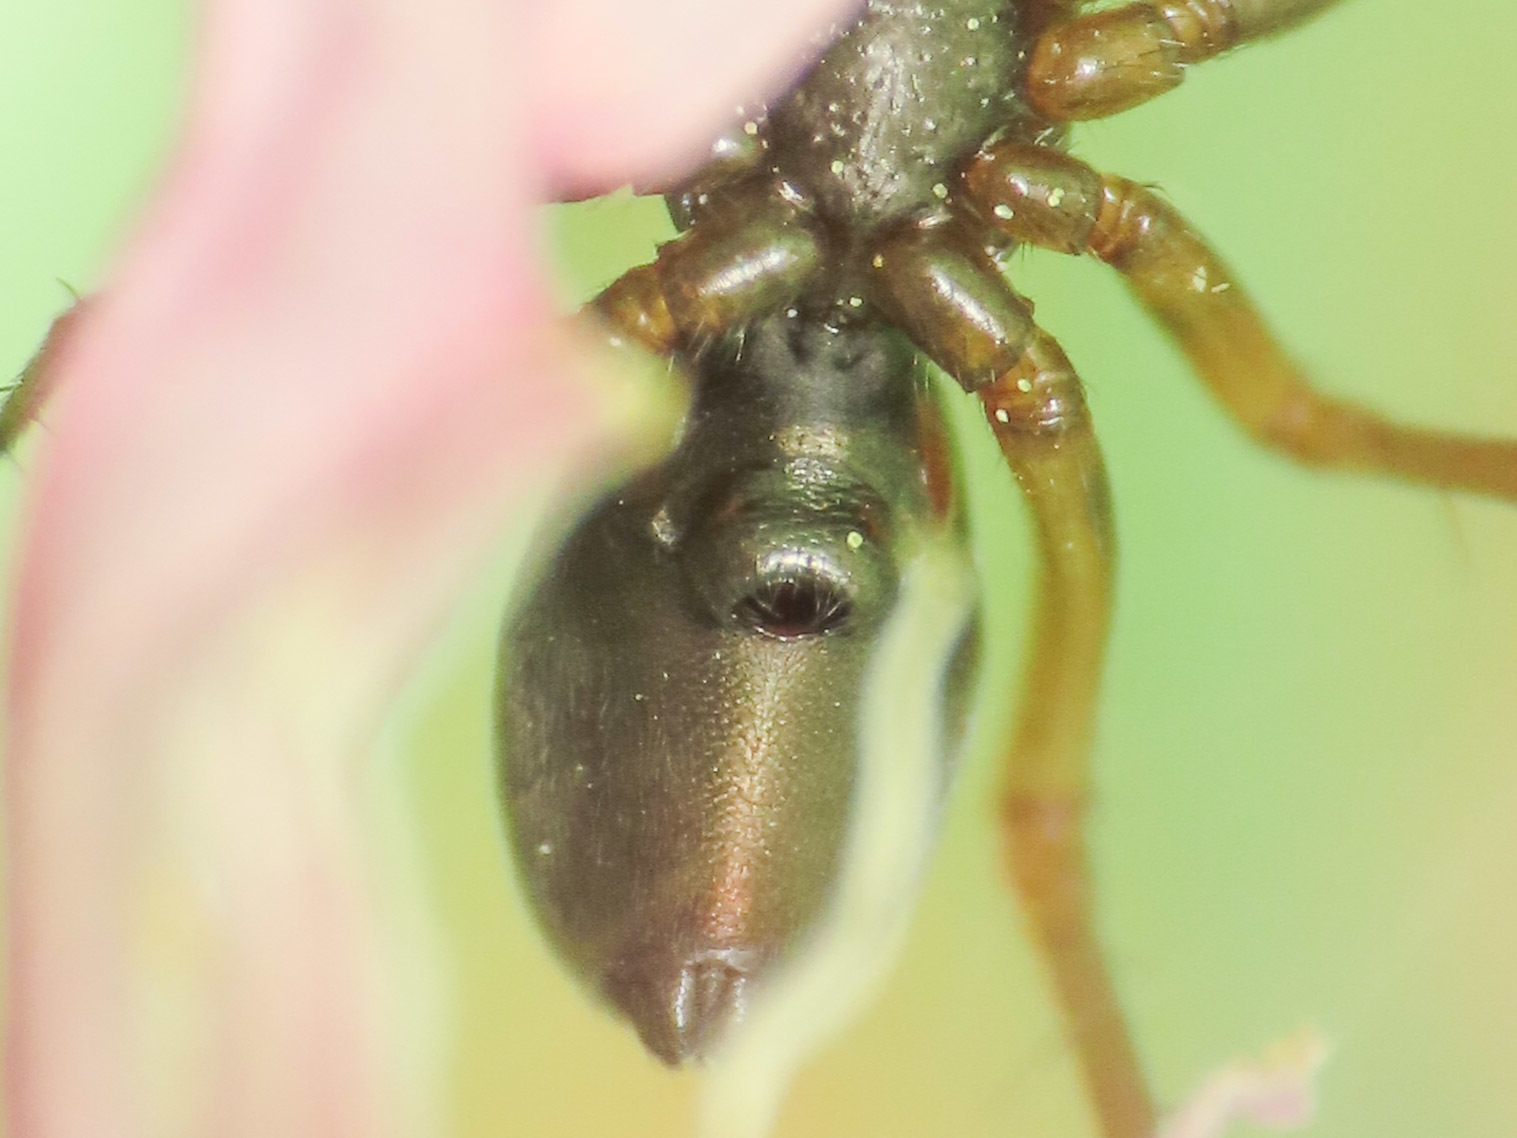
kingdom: Animalia
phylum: Arthropoda
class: Arachnida
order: Araneae
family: Linyphiidae
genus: Neriene
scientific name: Neriene furtiva
